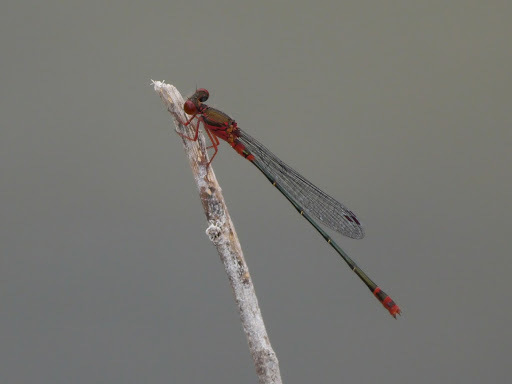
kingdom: Animalia
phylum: Arthropoda
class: Insecta
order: Odonata
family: Coenagrionidae
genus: Megalagrion
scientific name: Megalagrion xanthomelas
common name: Orangeblack hawaiian damselfly
